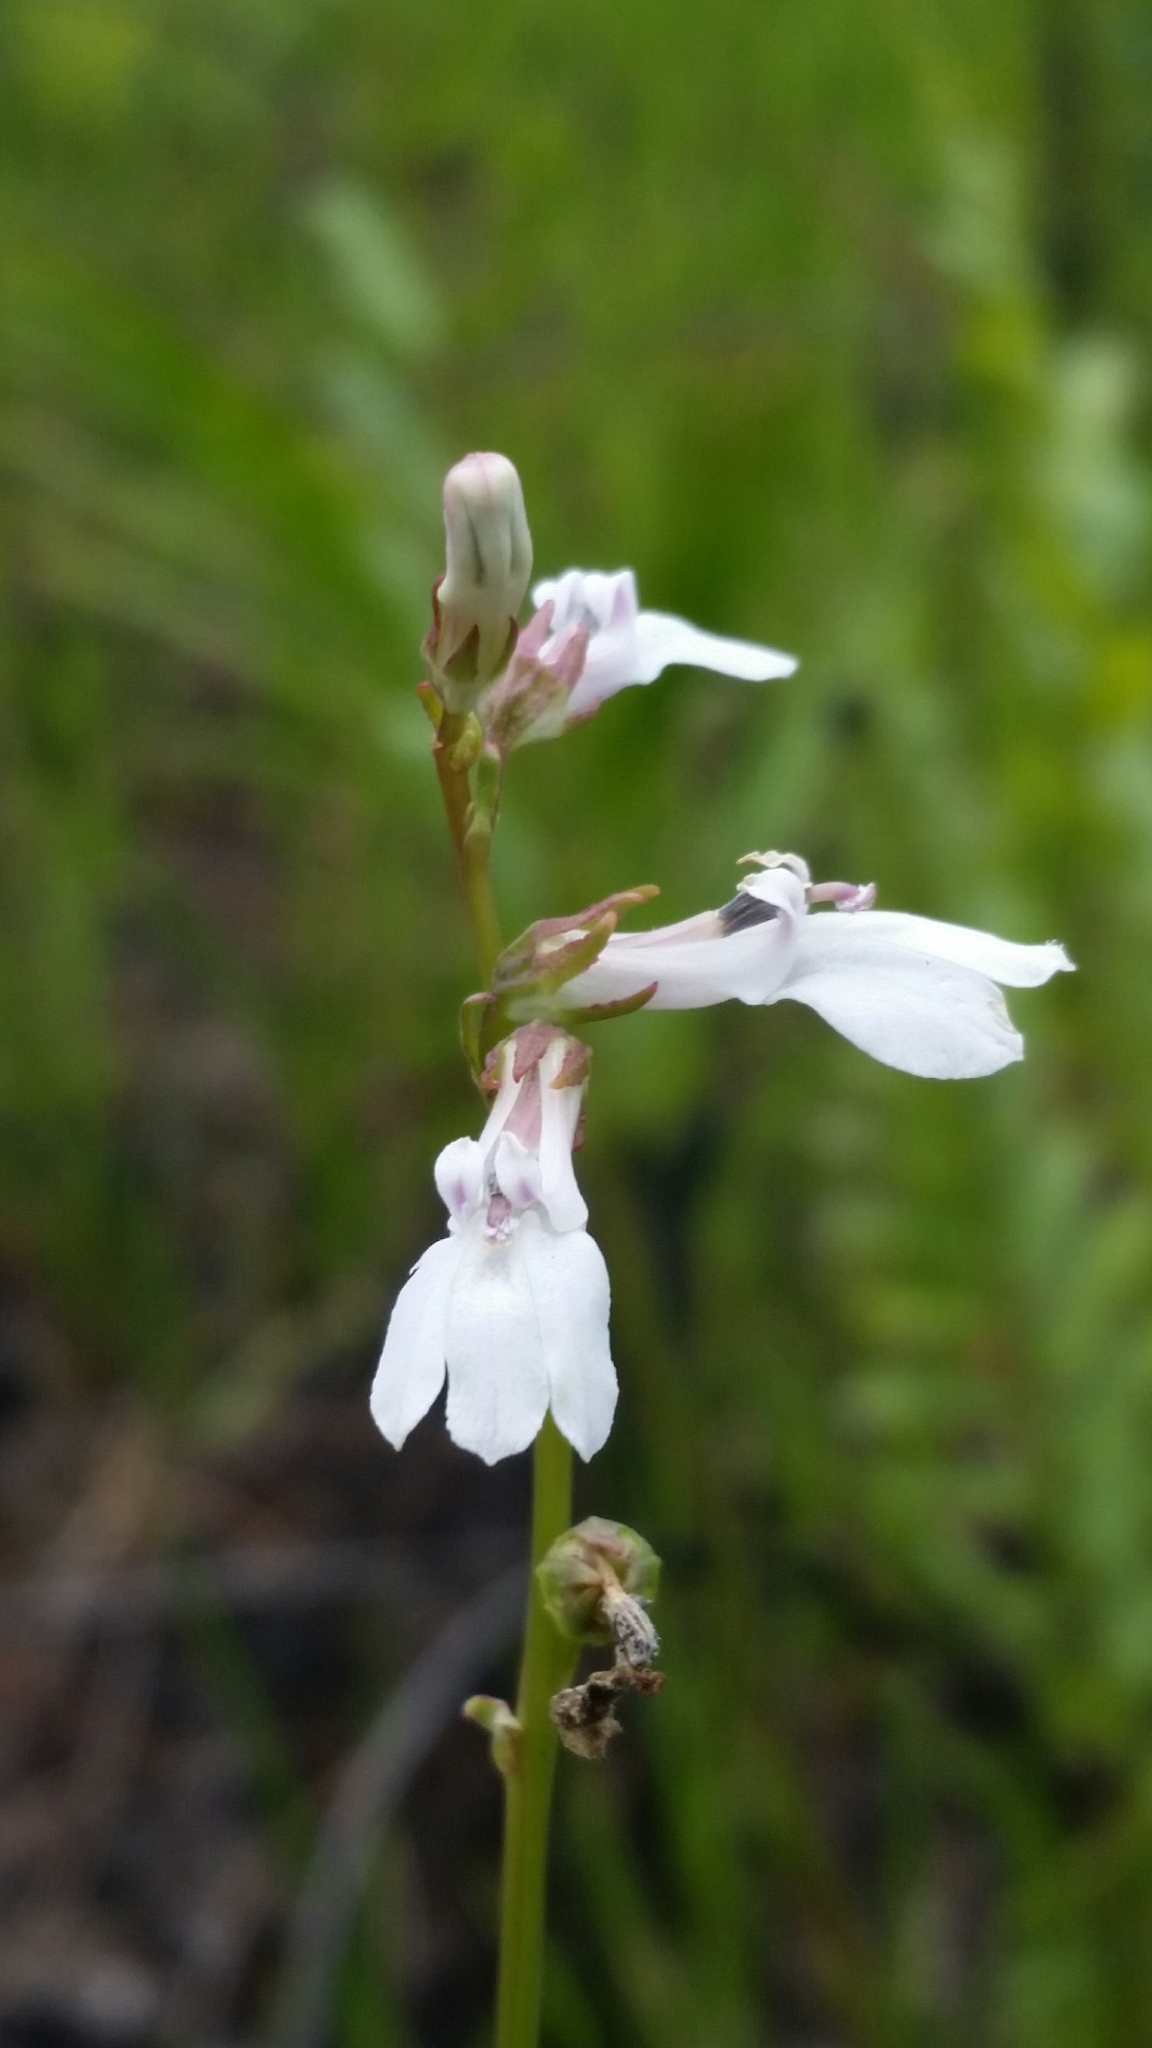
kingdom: Plantae
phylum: Tracheophyta
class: Magnoliopsida
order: Asterales
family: Campanulaceae
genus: Lobelia
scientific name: Lobelia paludosa
